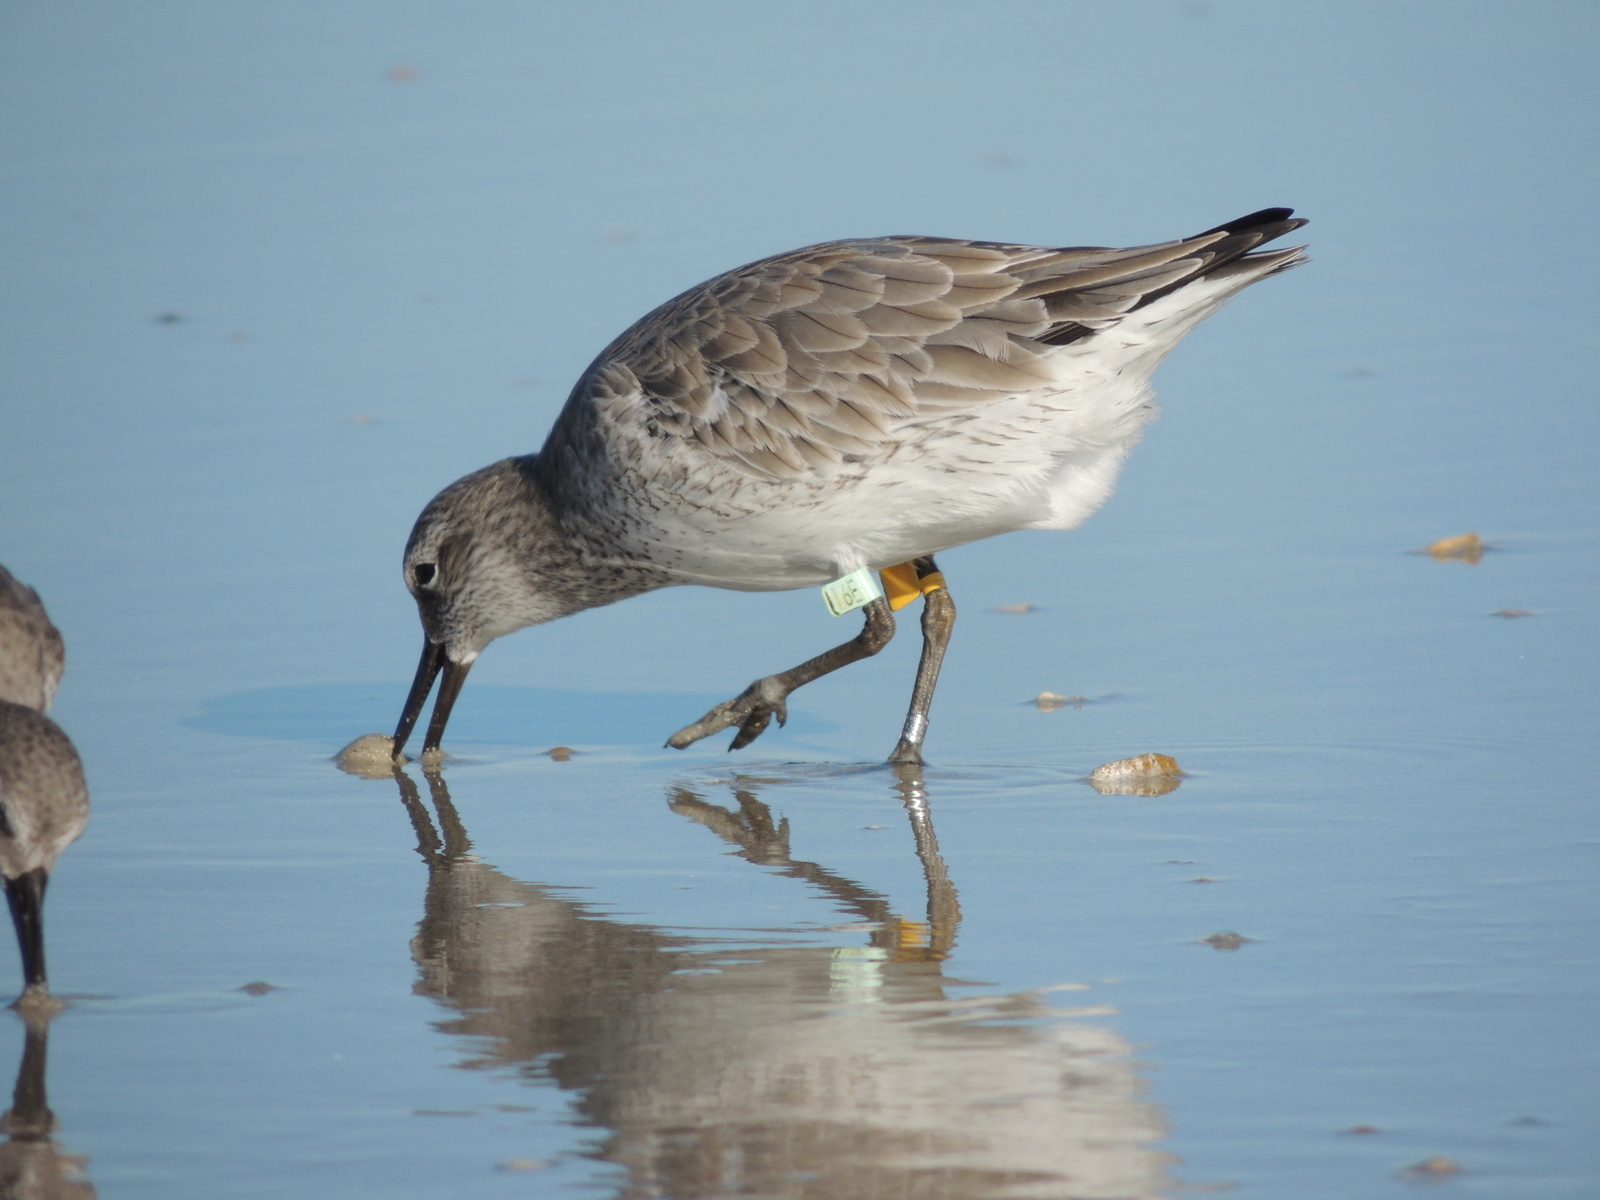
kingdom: Animalia
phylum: Chordata
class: Aves
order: Charadriiformes
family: Scolopacidae
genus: Calidris
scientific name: Calidris canutus
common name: Red knot
